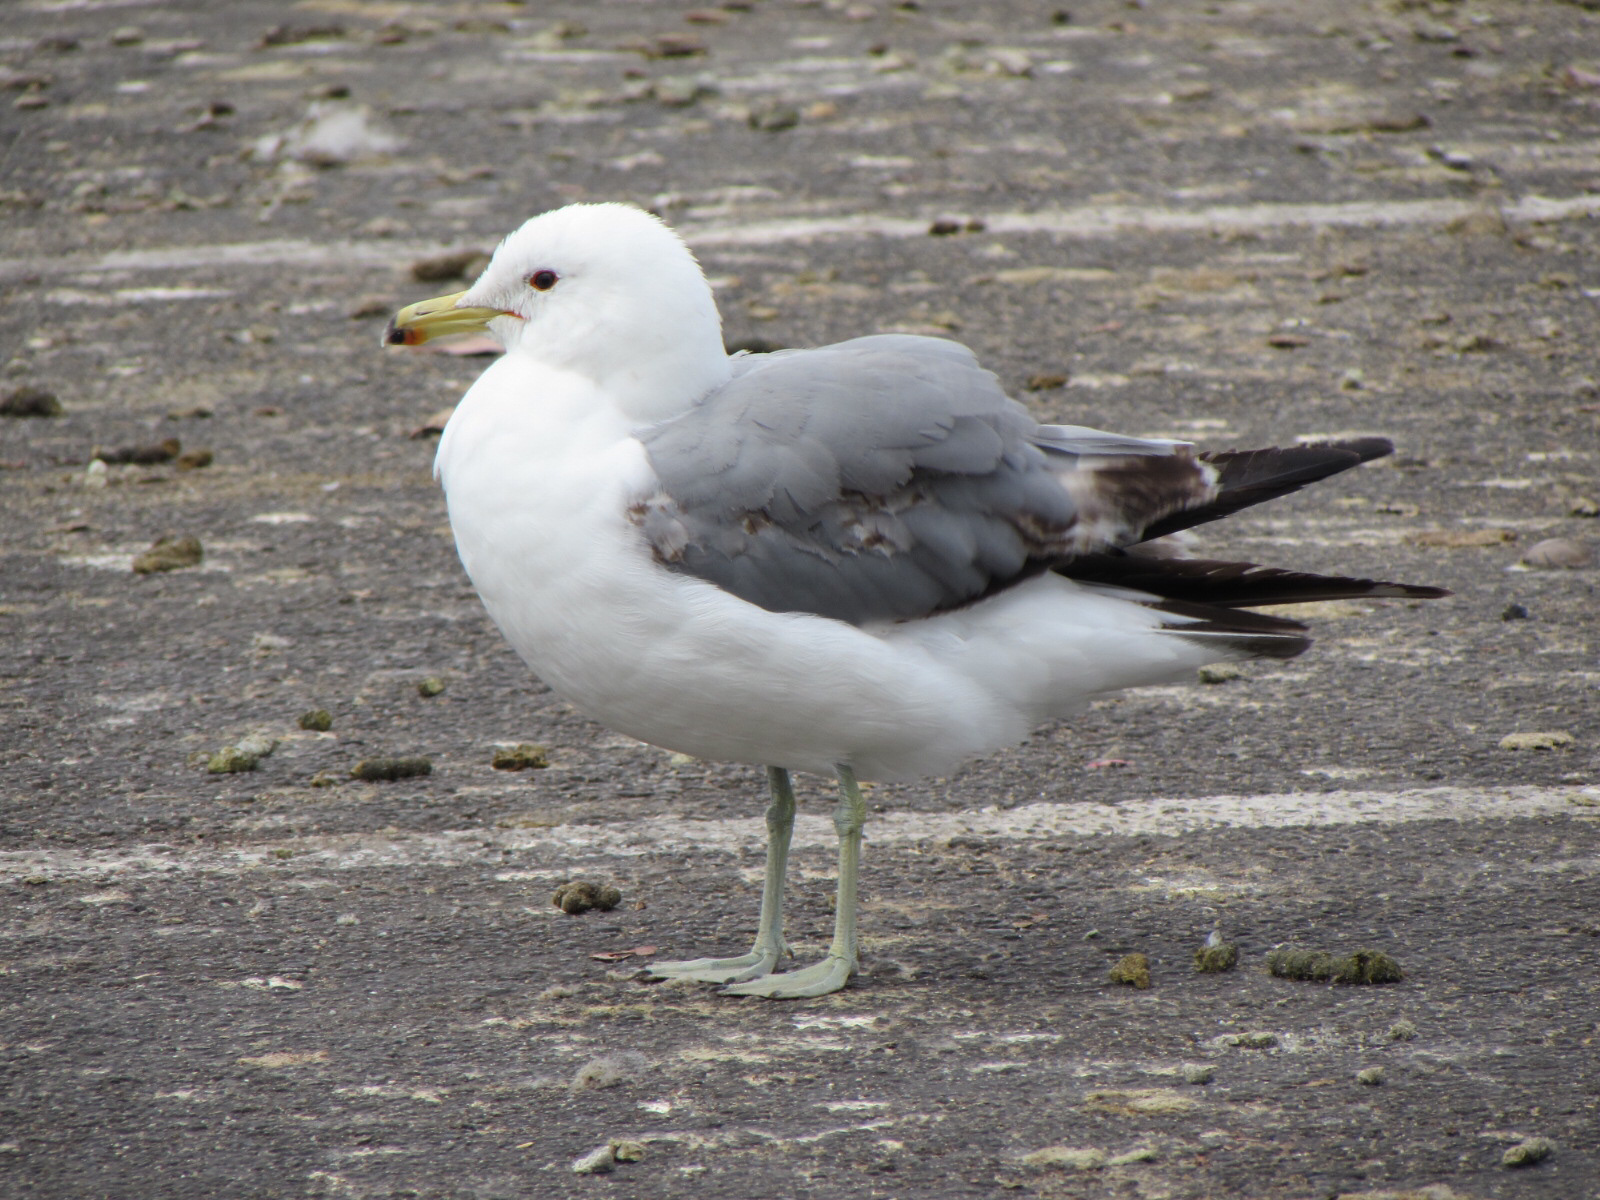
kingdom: Animalia
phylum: Chordata
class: Aves
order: Charadriiformes
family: Laridae
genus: Larus
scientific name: Larus californicus
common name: California gull
